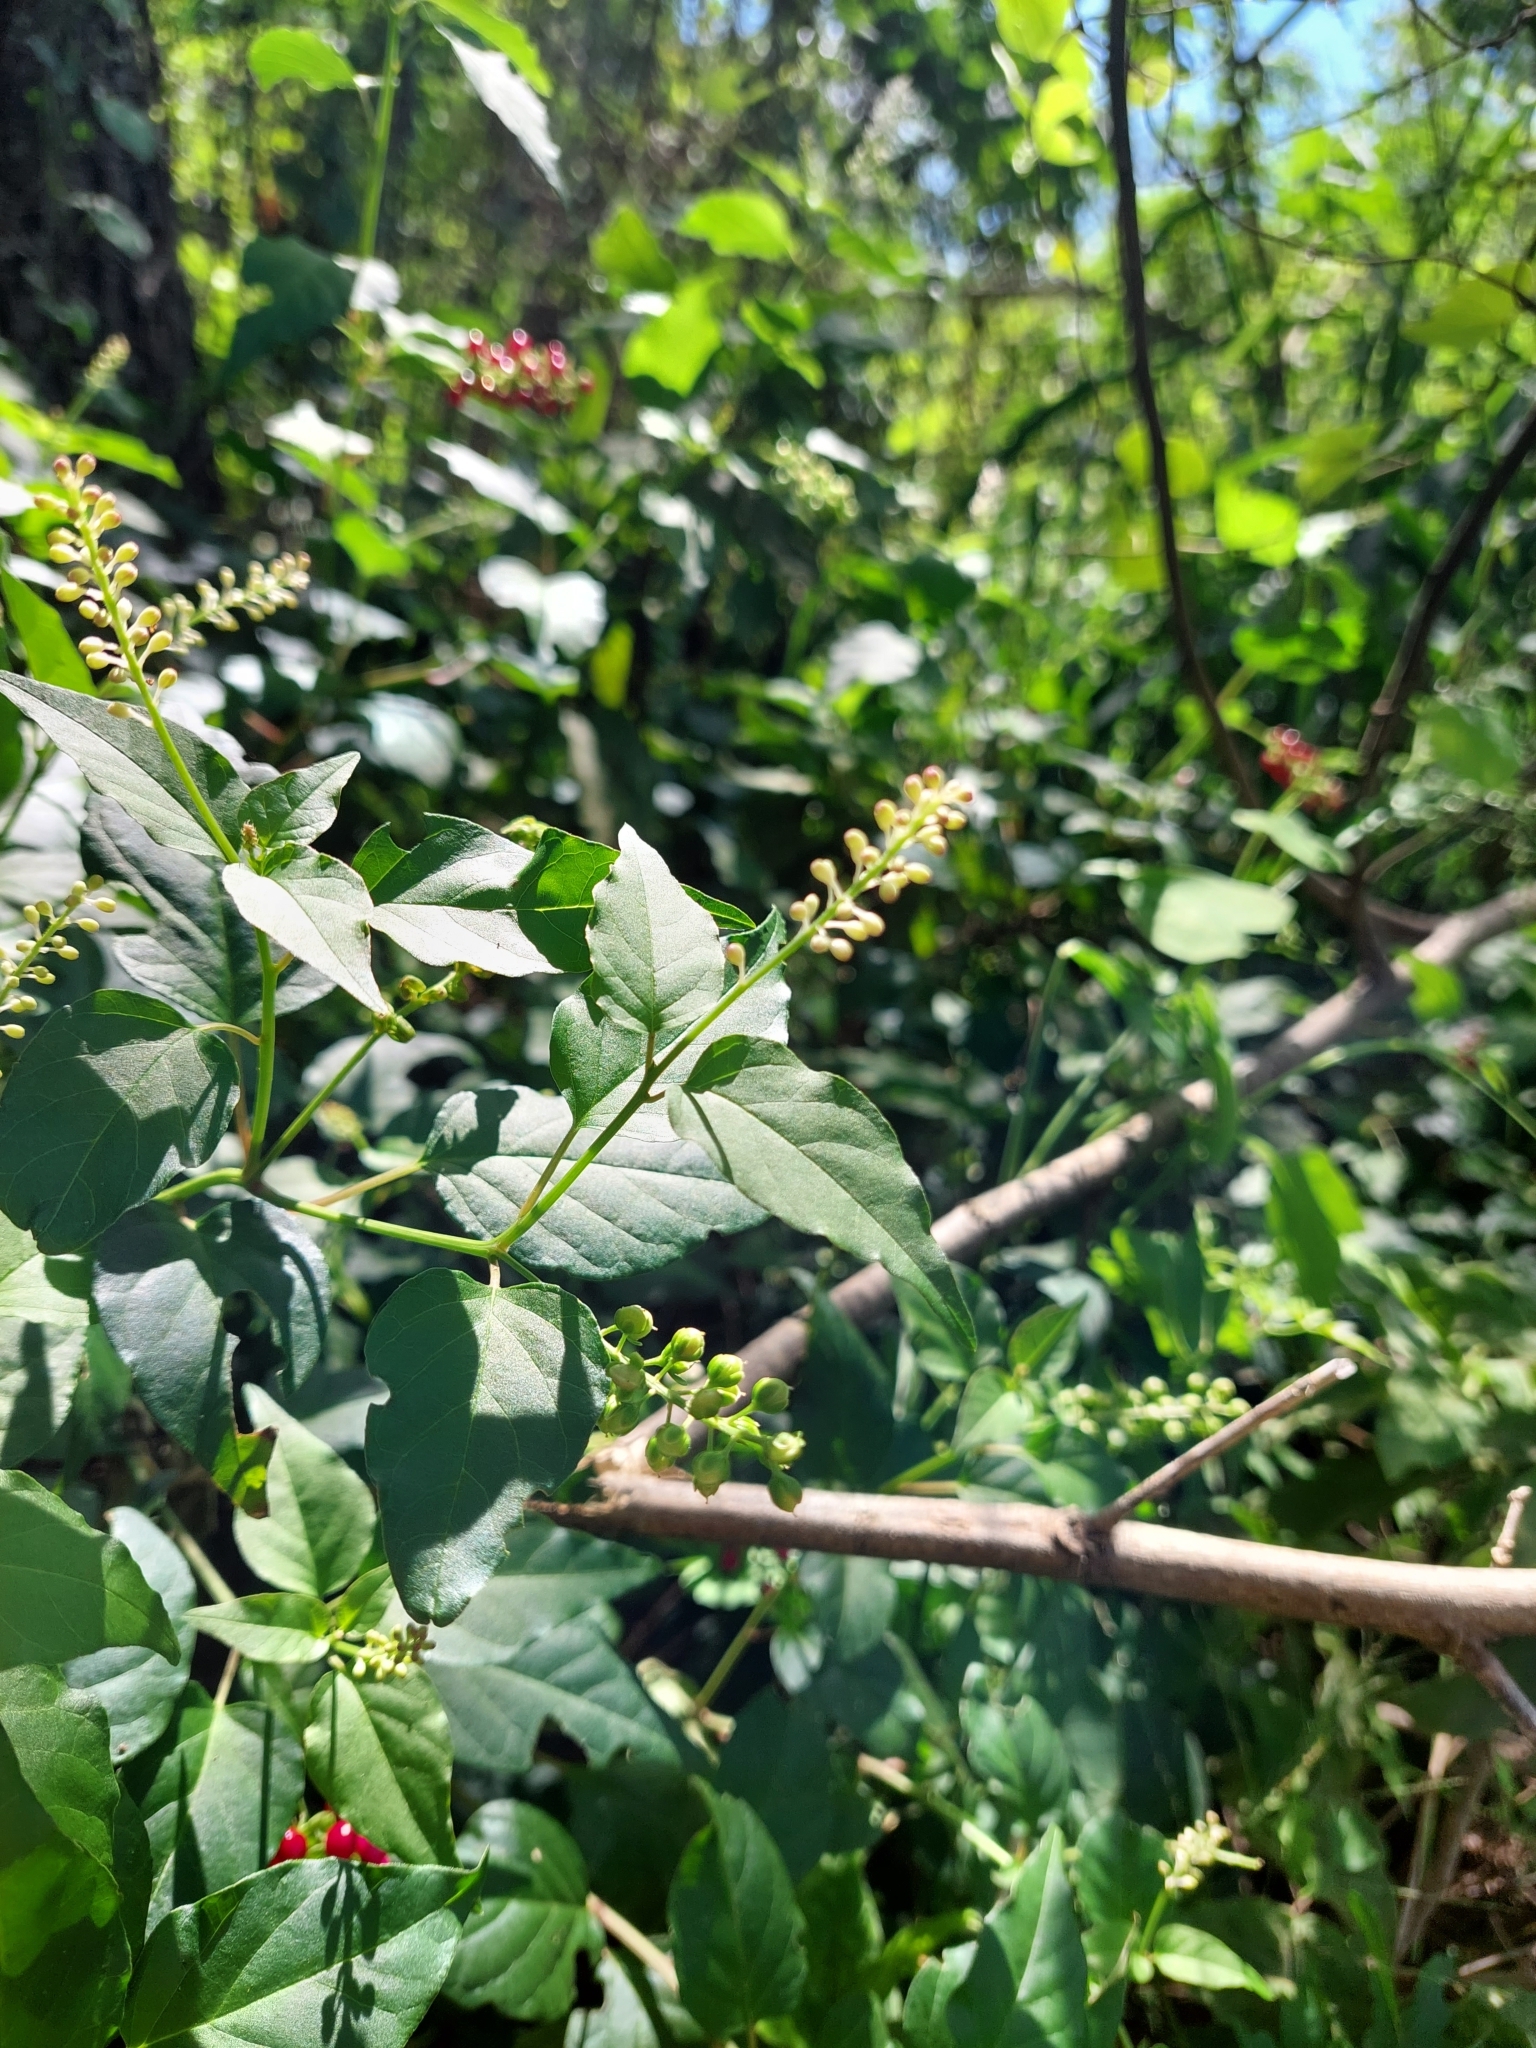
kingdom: Plantae
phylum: Tracheophyta
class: Magnoliopsida
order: Caryophyllales
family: Phytolaccaceae
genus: Rivina
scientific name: Rivina humilis
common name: Rougeplant
